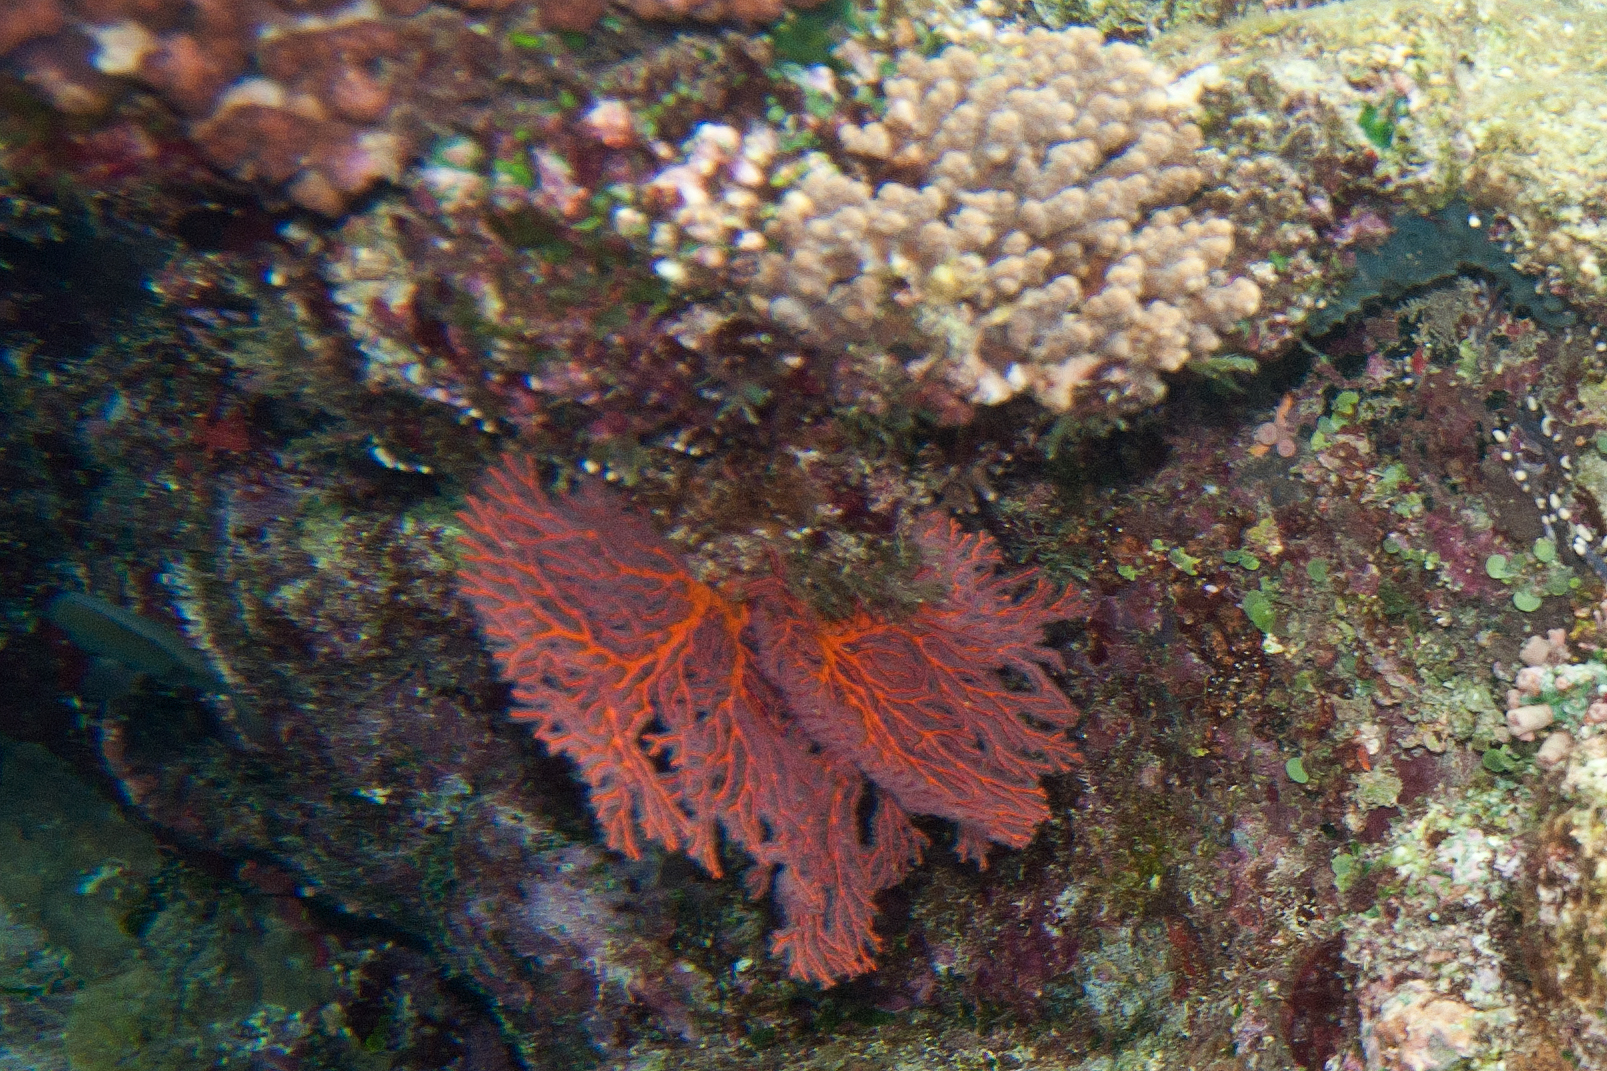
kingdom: Animalia
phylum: Cnidaria
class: Anthozoa
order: Malacalcyonacea
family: Melithaeidae
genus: Melithaea
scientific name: Melithaea ochracea
